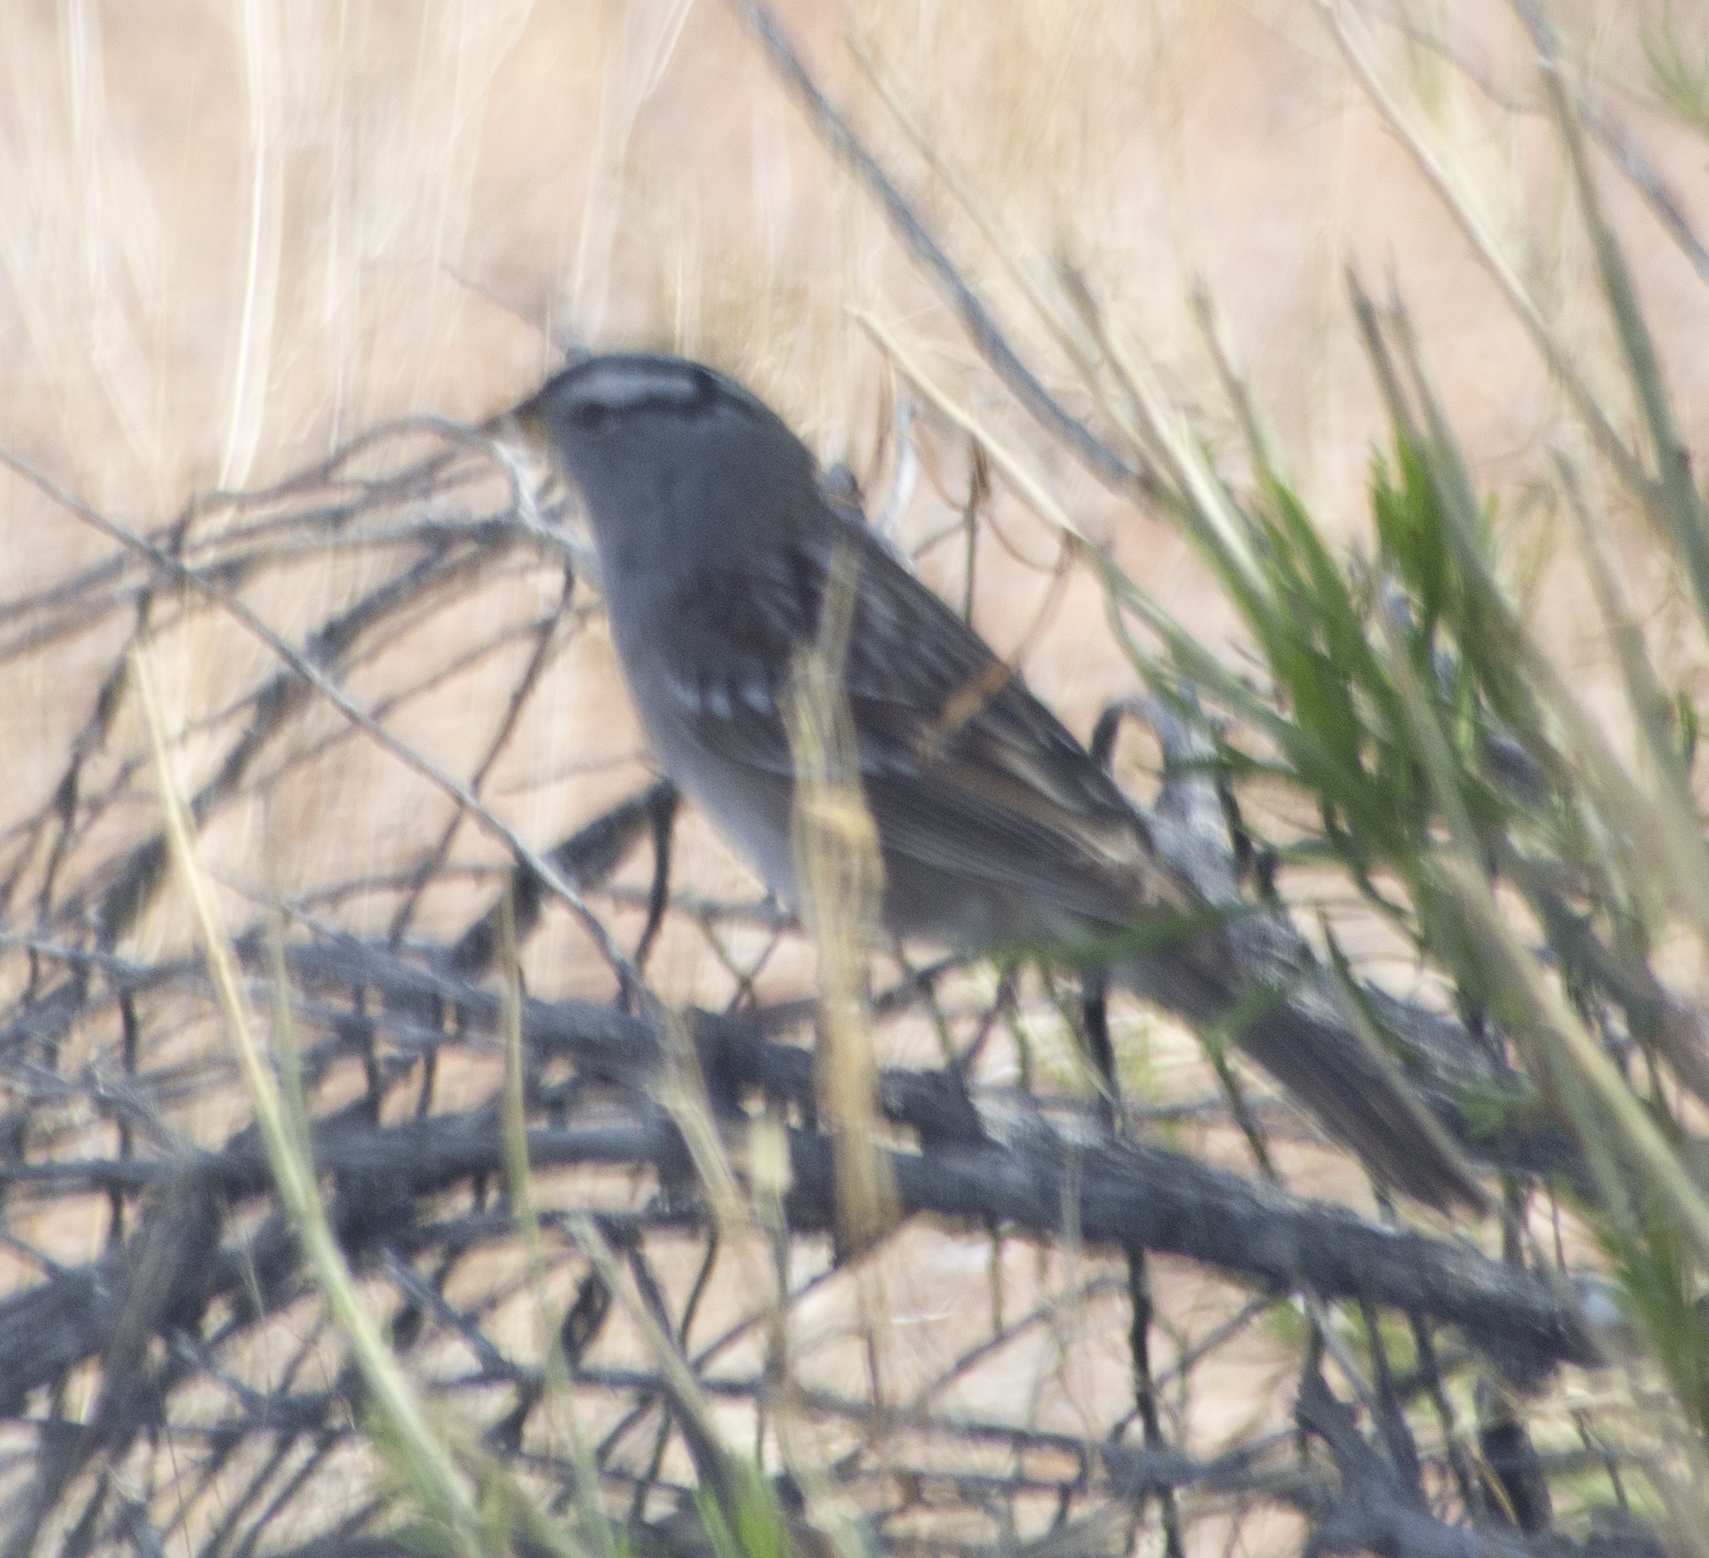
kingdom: Animalia
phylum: Chordata
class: Aves
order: Passeriformes
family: Passerellidae
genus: Zonotrichia
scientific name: Zonotrichia leucophrys
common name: White-crowned sparrow
